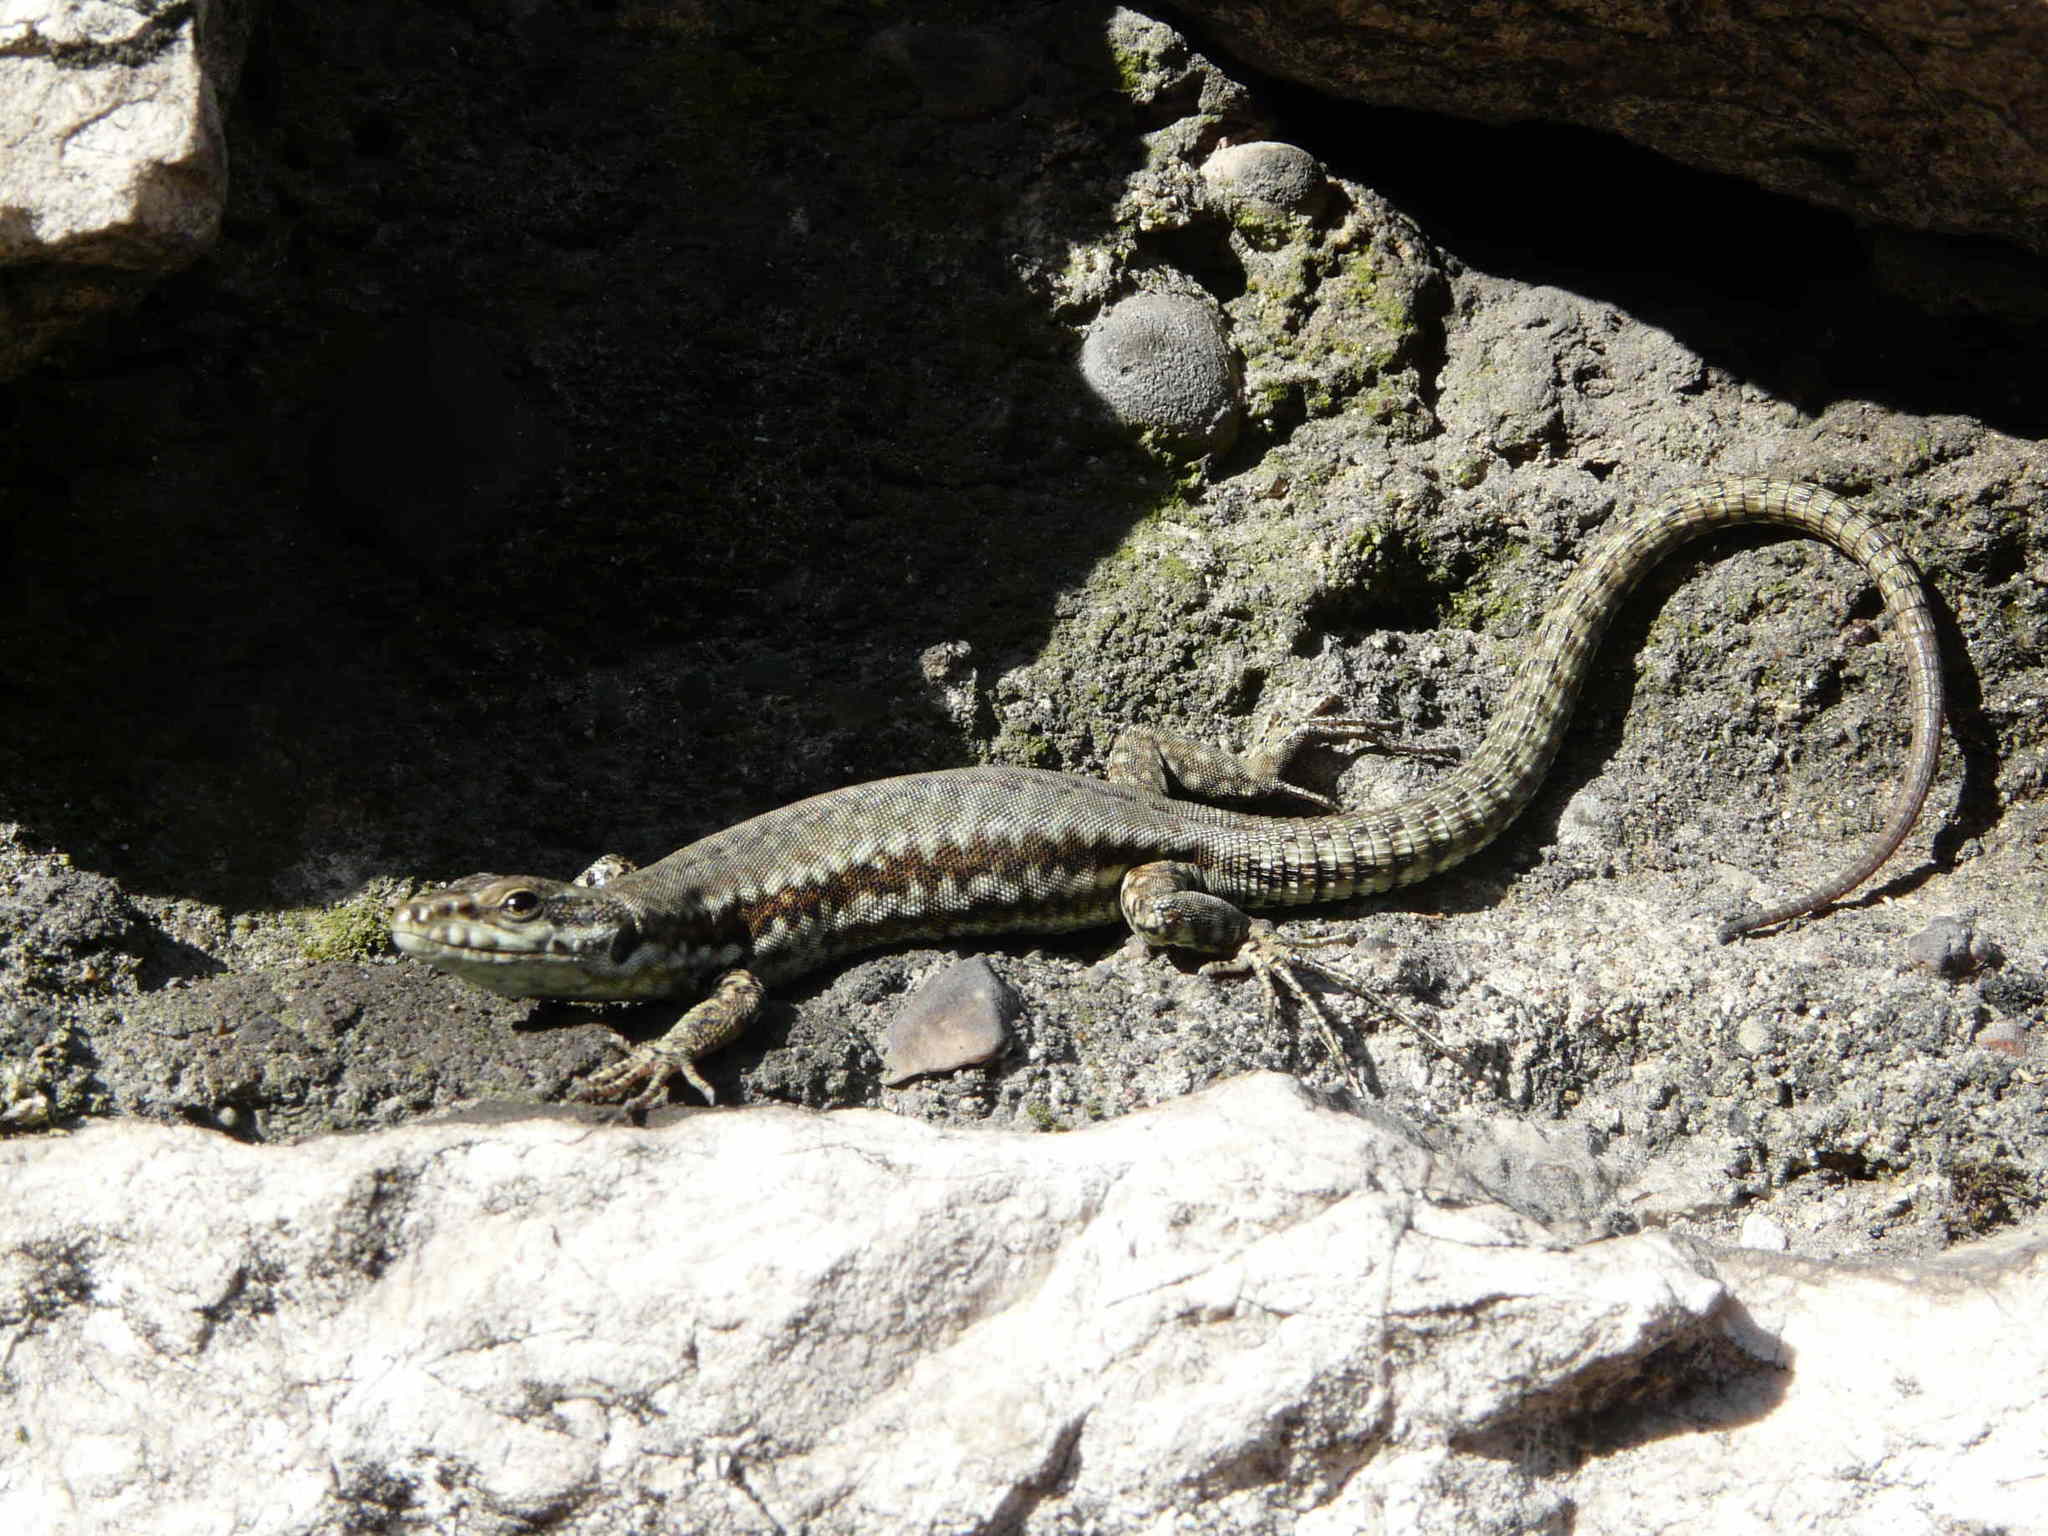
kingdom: Animalia
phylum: Chordata
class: Squamata
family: Lacertidae
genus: Podarcis
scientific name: Podarcis muralis
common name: Common wall lizard
